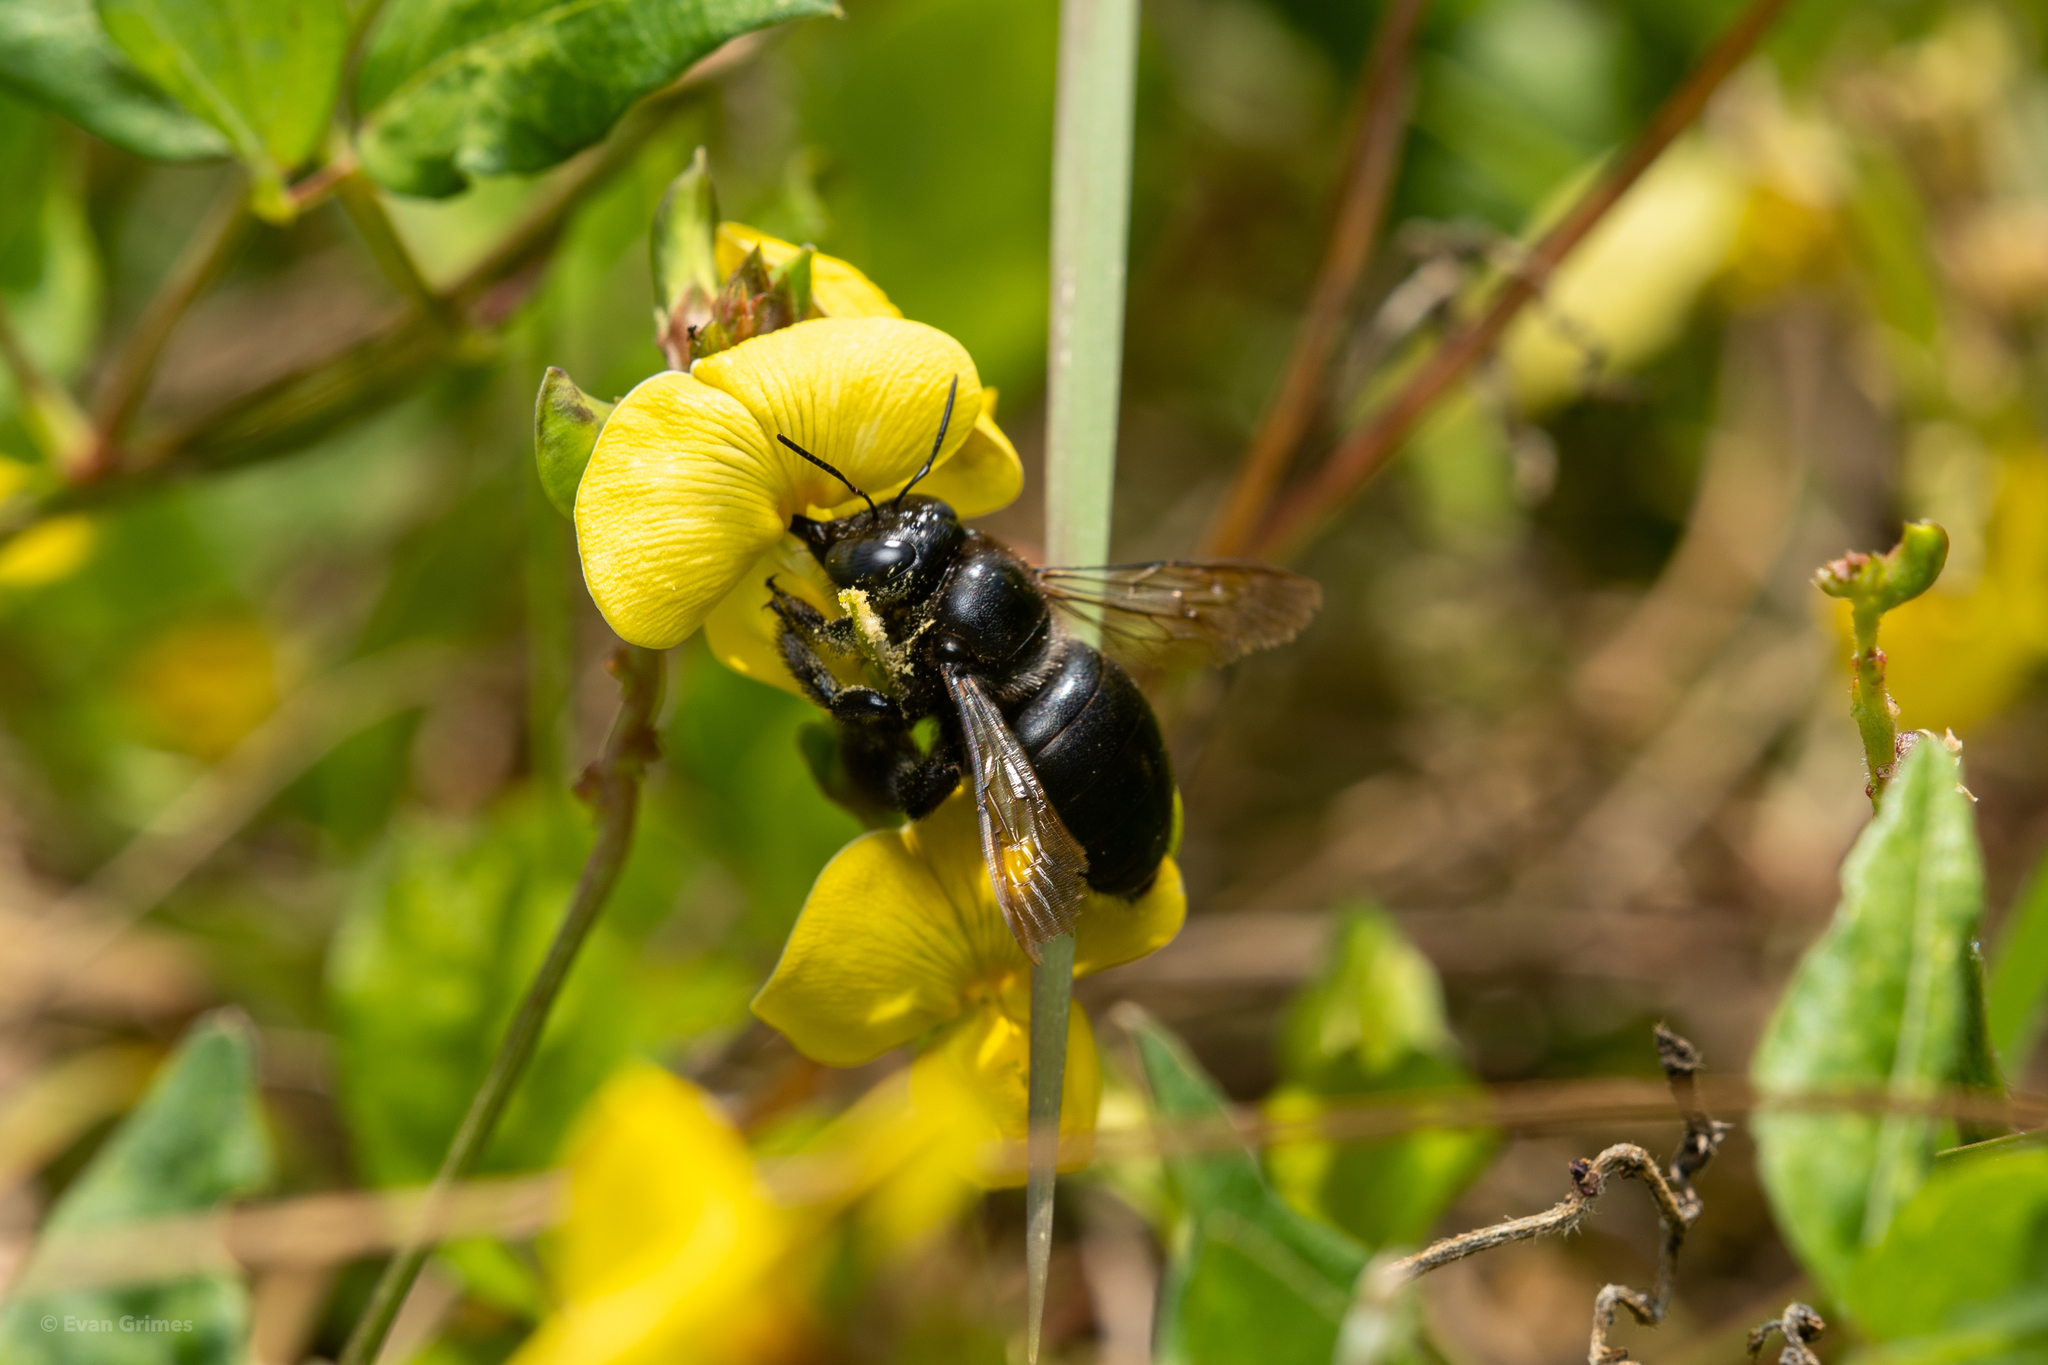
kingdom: Animalia
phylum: Arthropoda
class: Insecta
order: Hymenoptera
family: Apidae
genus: Xylocopa
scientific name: Xylocopa micans
